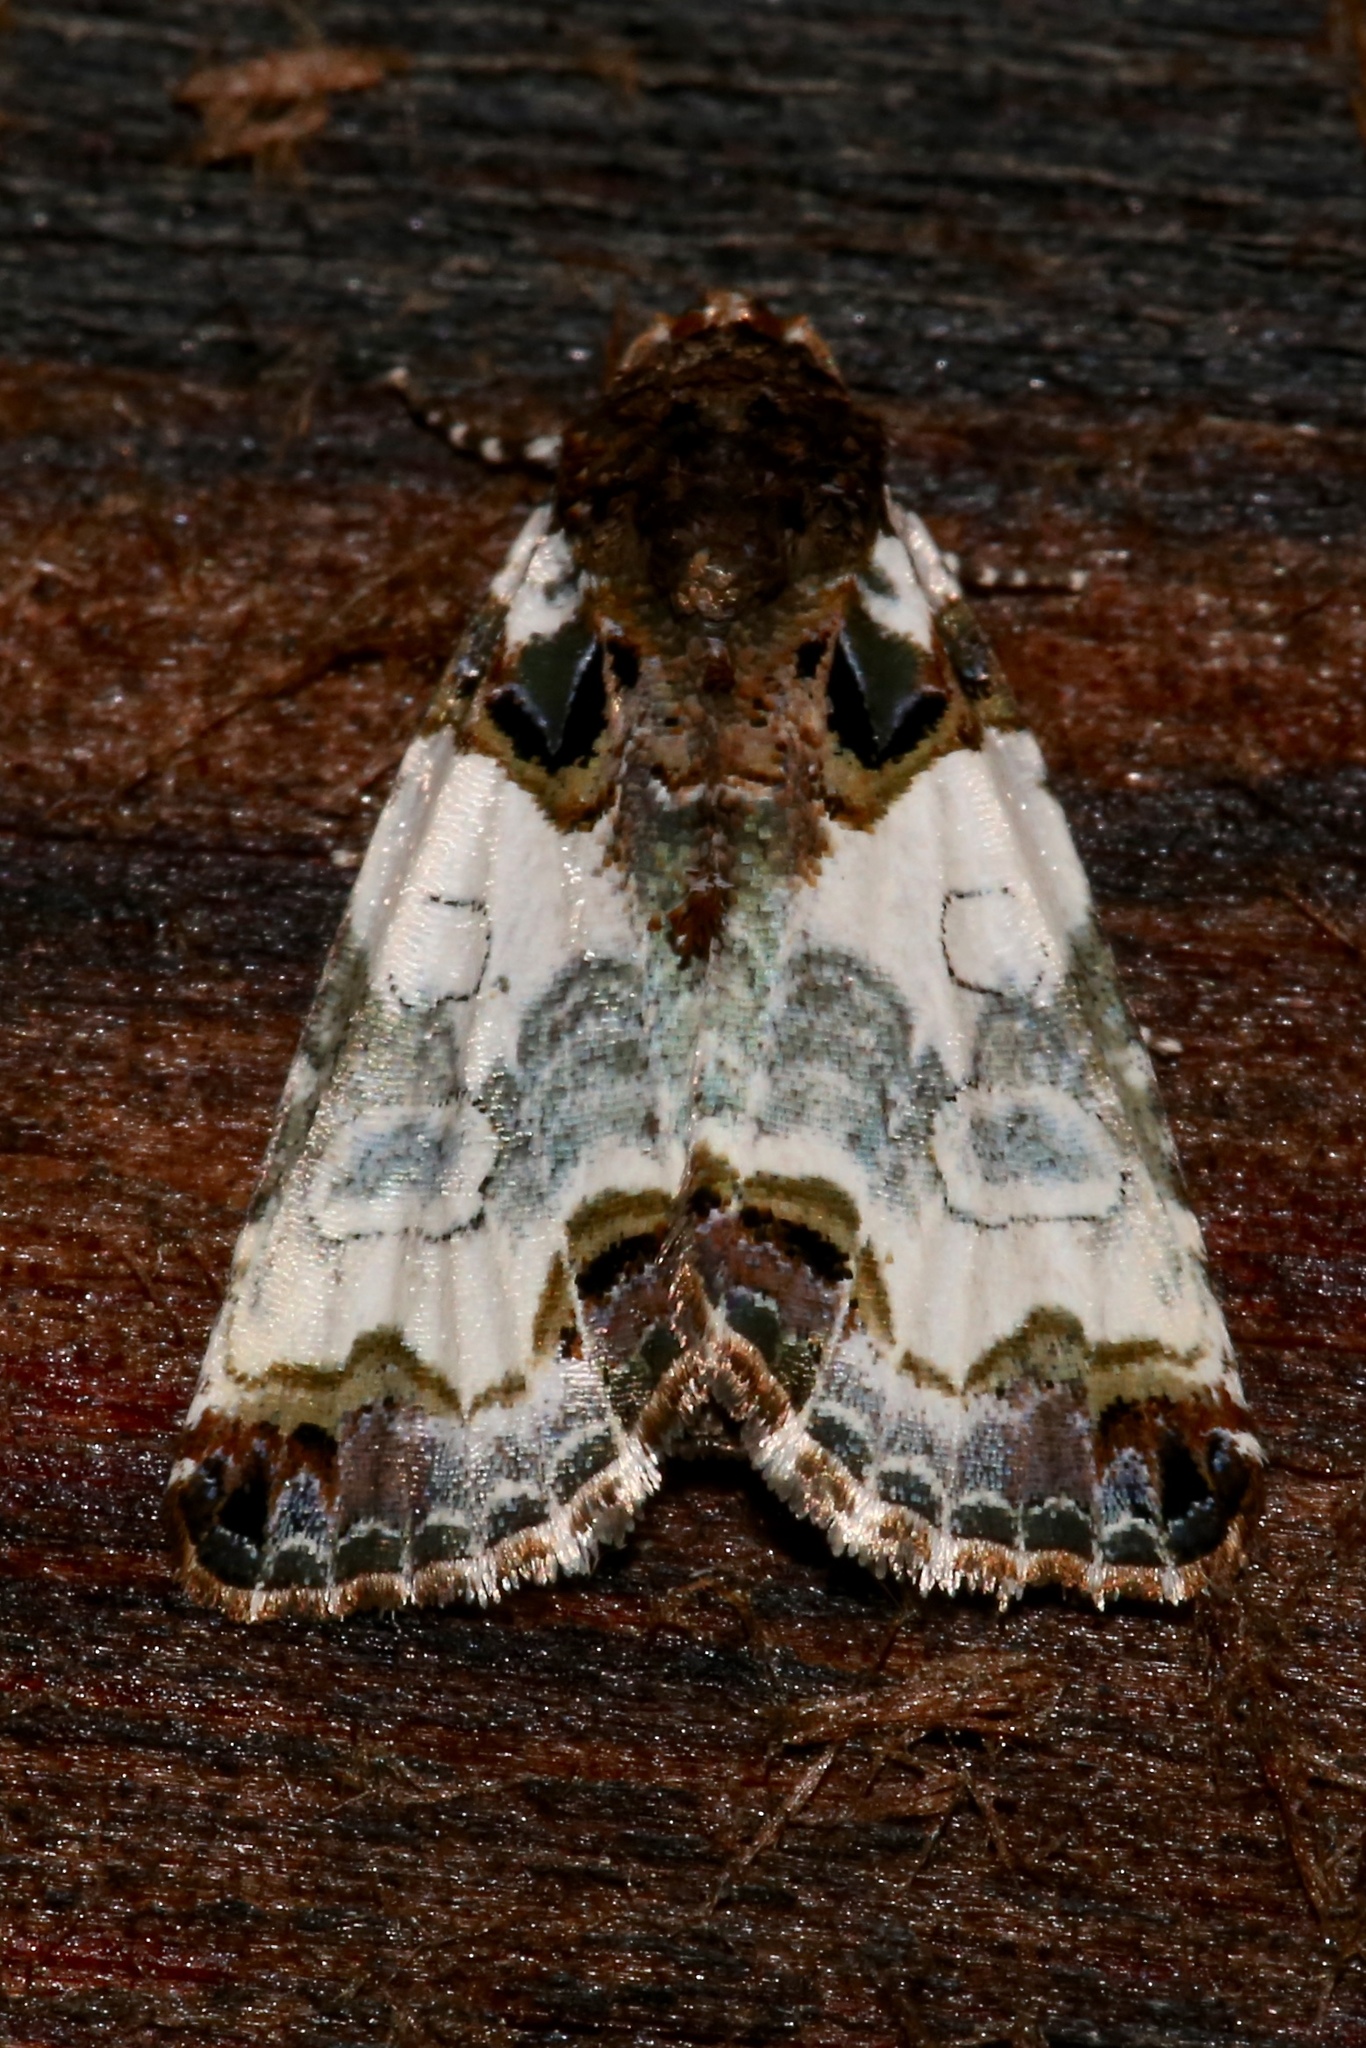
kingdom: Animalia
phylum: Arthropoda
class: Insecta
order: Lepidoptera
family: Noctuidae
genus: Cerma
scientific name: Cerma cerintha
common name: Tufted bird-dropping moth
